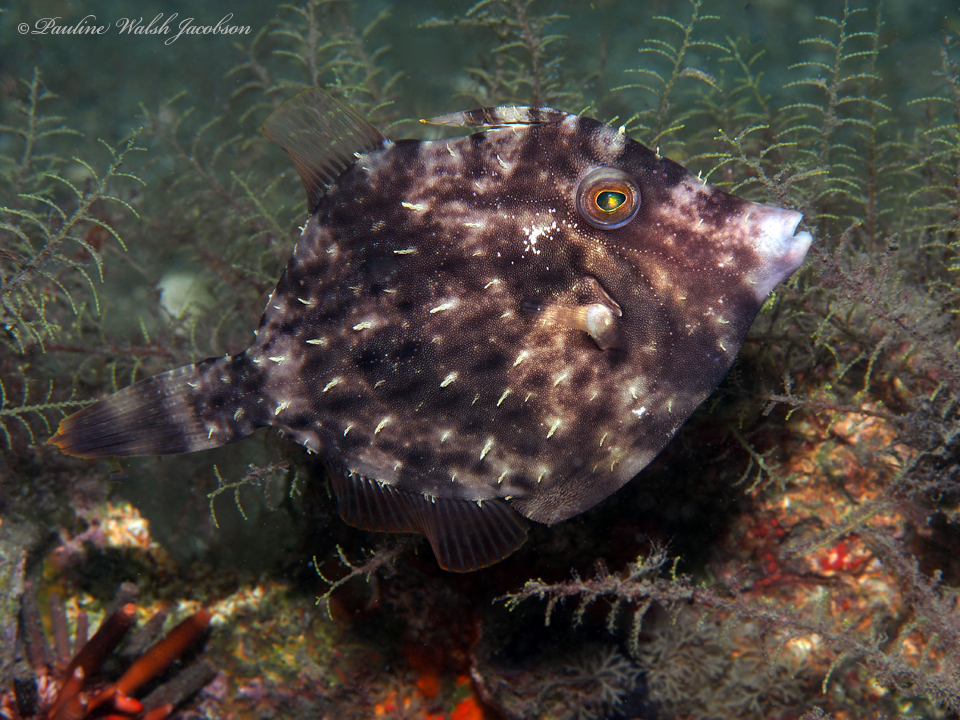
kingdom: Animalia
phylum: Chordata
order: Tetraodontiformes
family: Monacanthidae
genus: Stephanolepis
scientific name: Stephanolepis hispidus
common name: Planehead filefish
